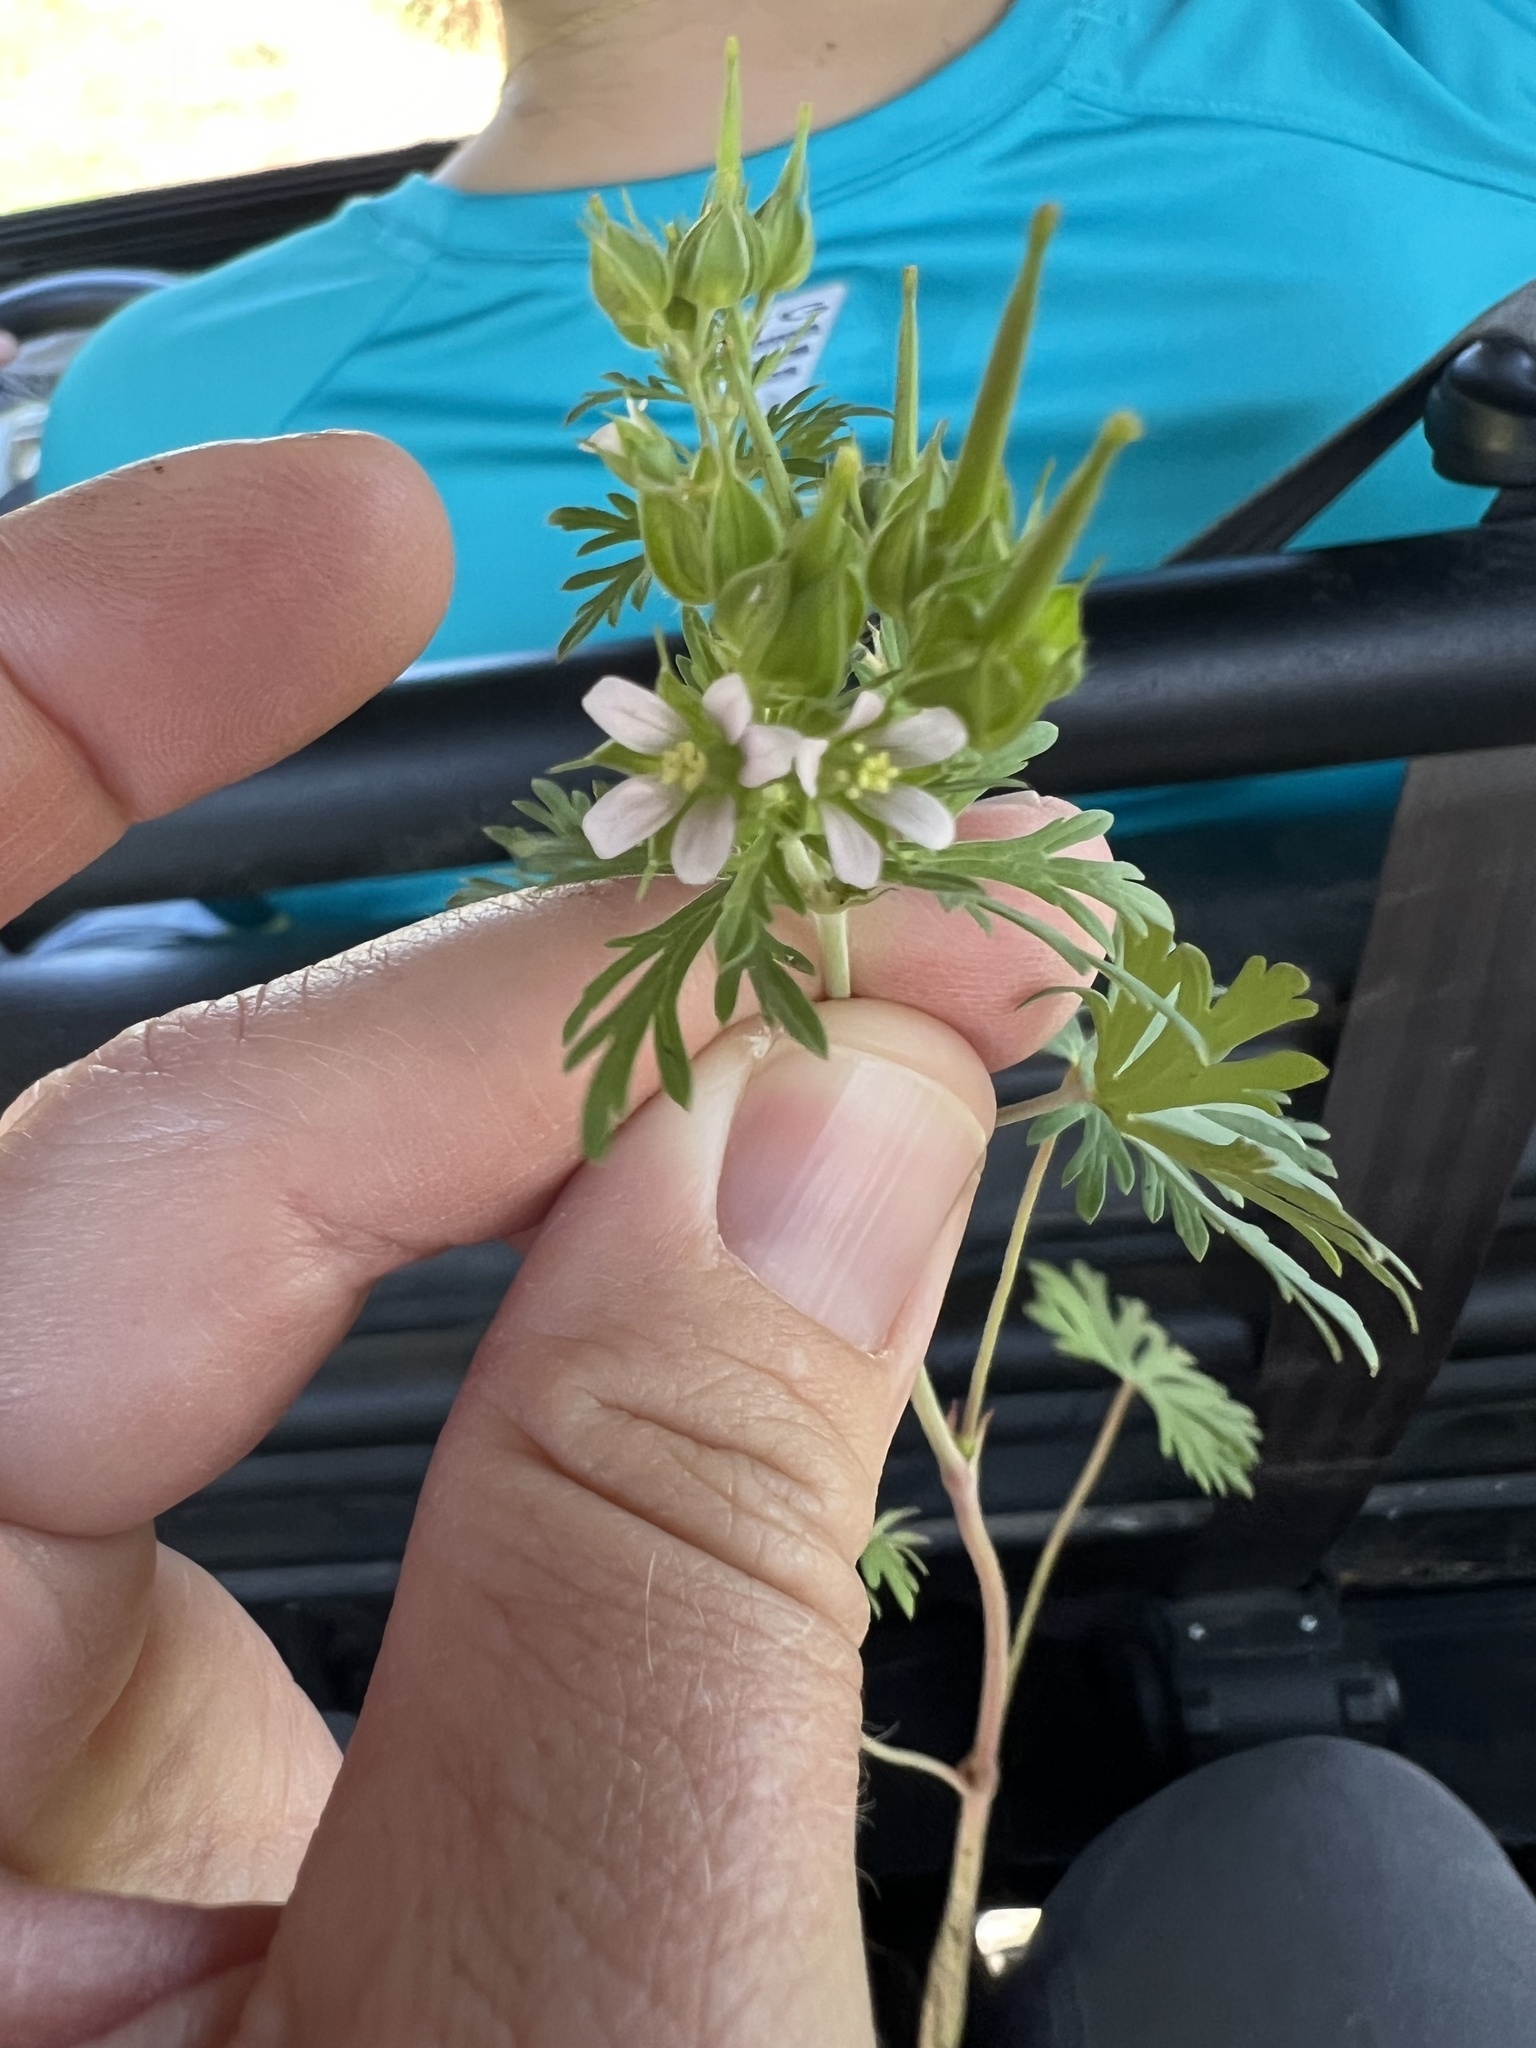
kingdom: Plantae
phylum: Tracheophyta
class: Magnoliopsida
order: Geraniales
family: Geraniaceae
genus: Geranium
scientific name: Geranium carolinianum
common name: Carolina crane's-bill
